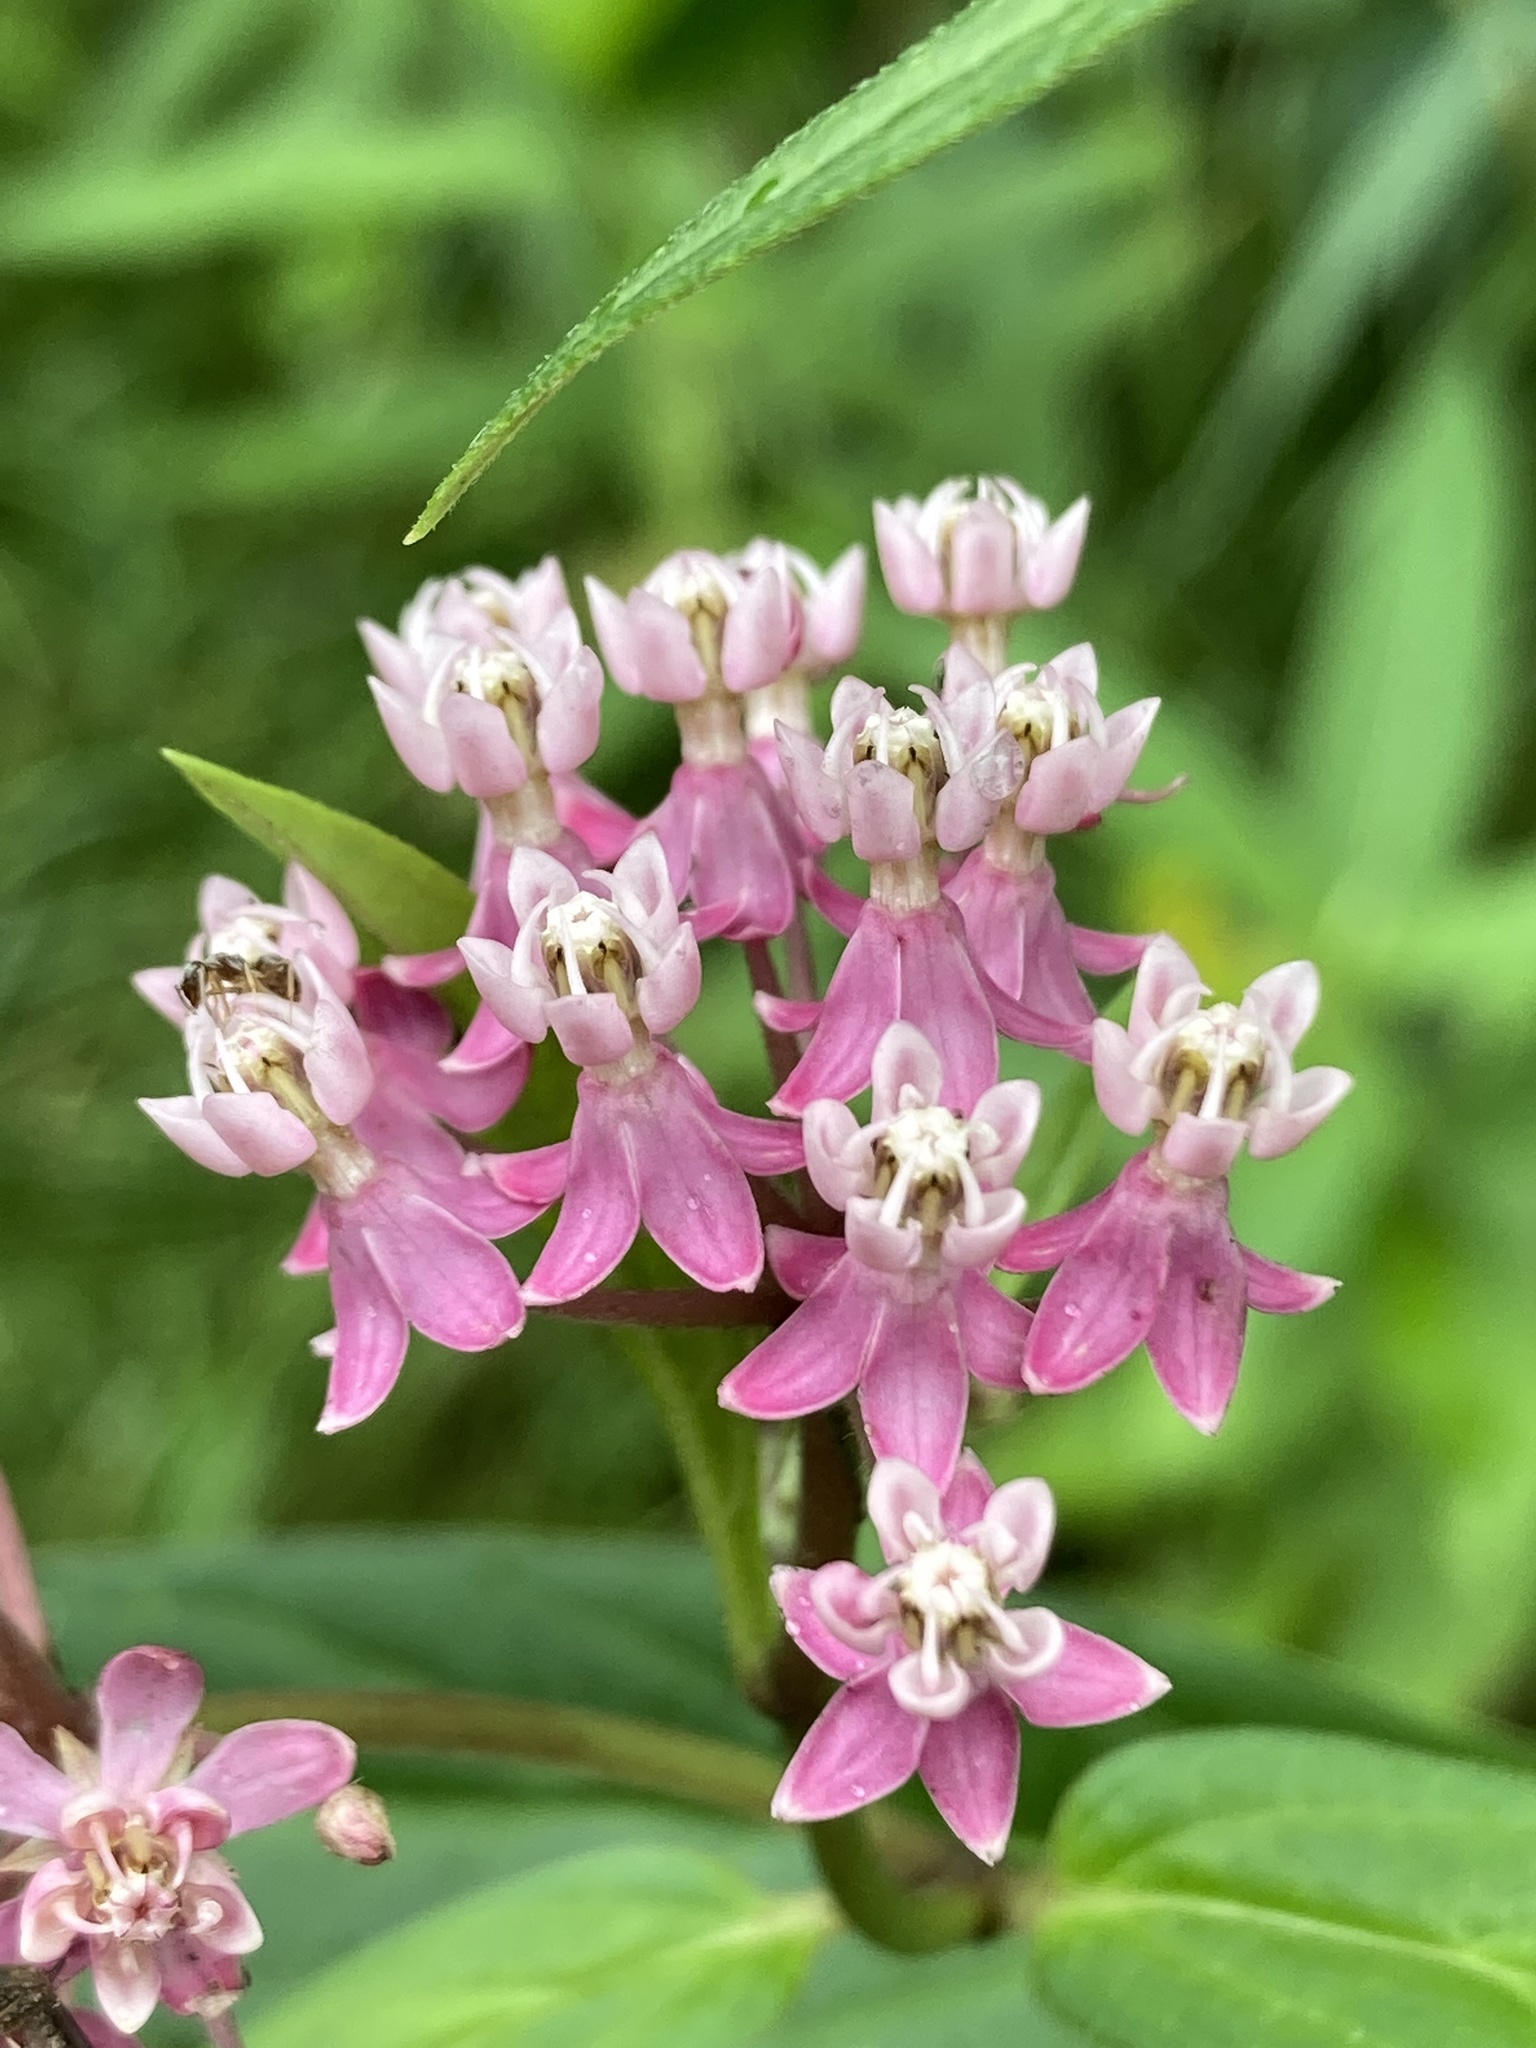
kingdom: Plantae
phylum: Tracheophyta
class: Magnoliopsida
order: Gentianales
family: Apocynaceae
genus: Asclepias
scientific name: Asclepias incarnata
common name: Swamp milkweed
